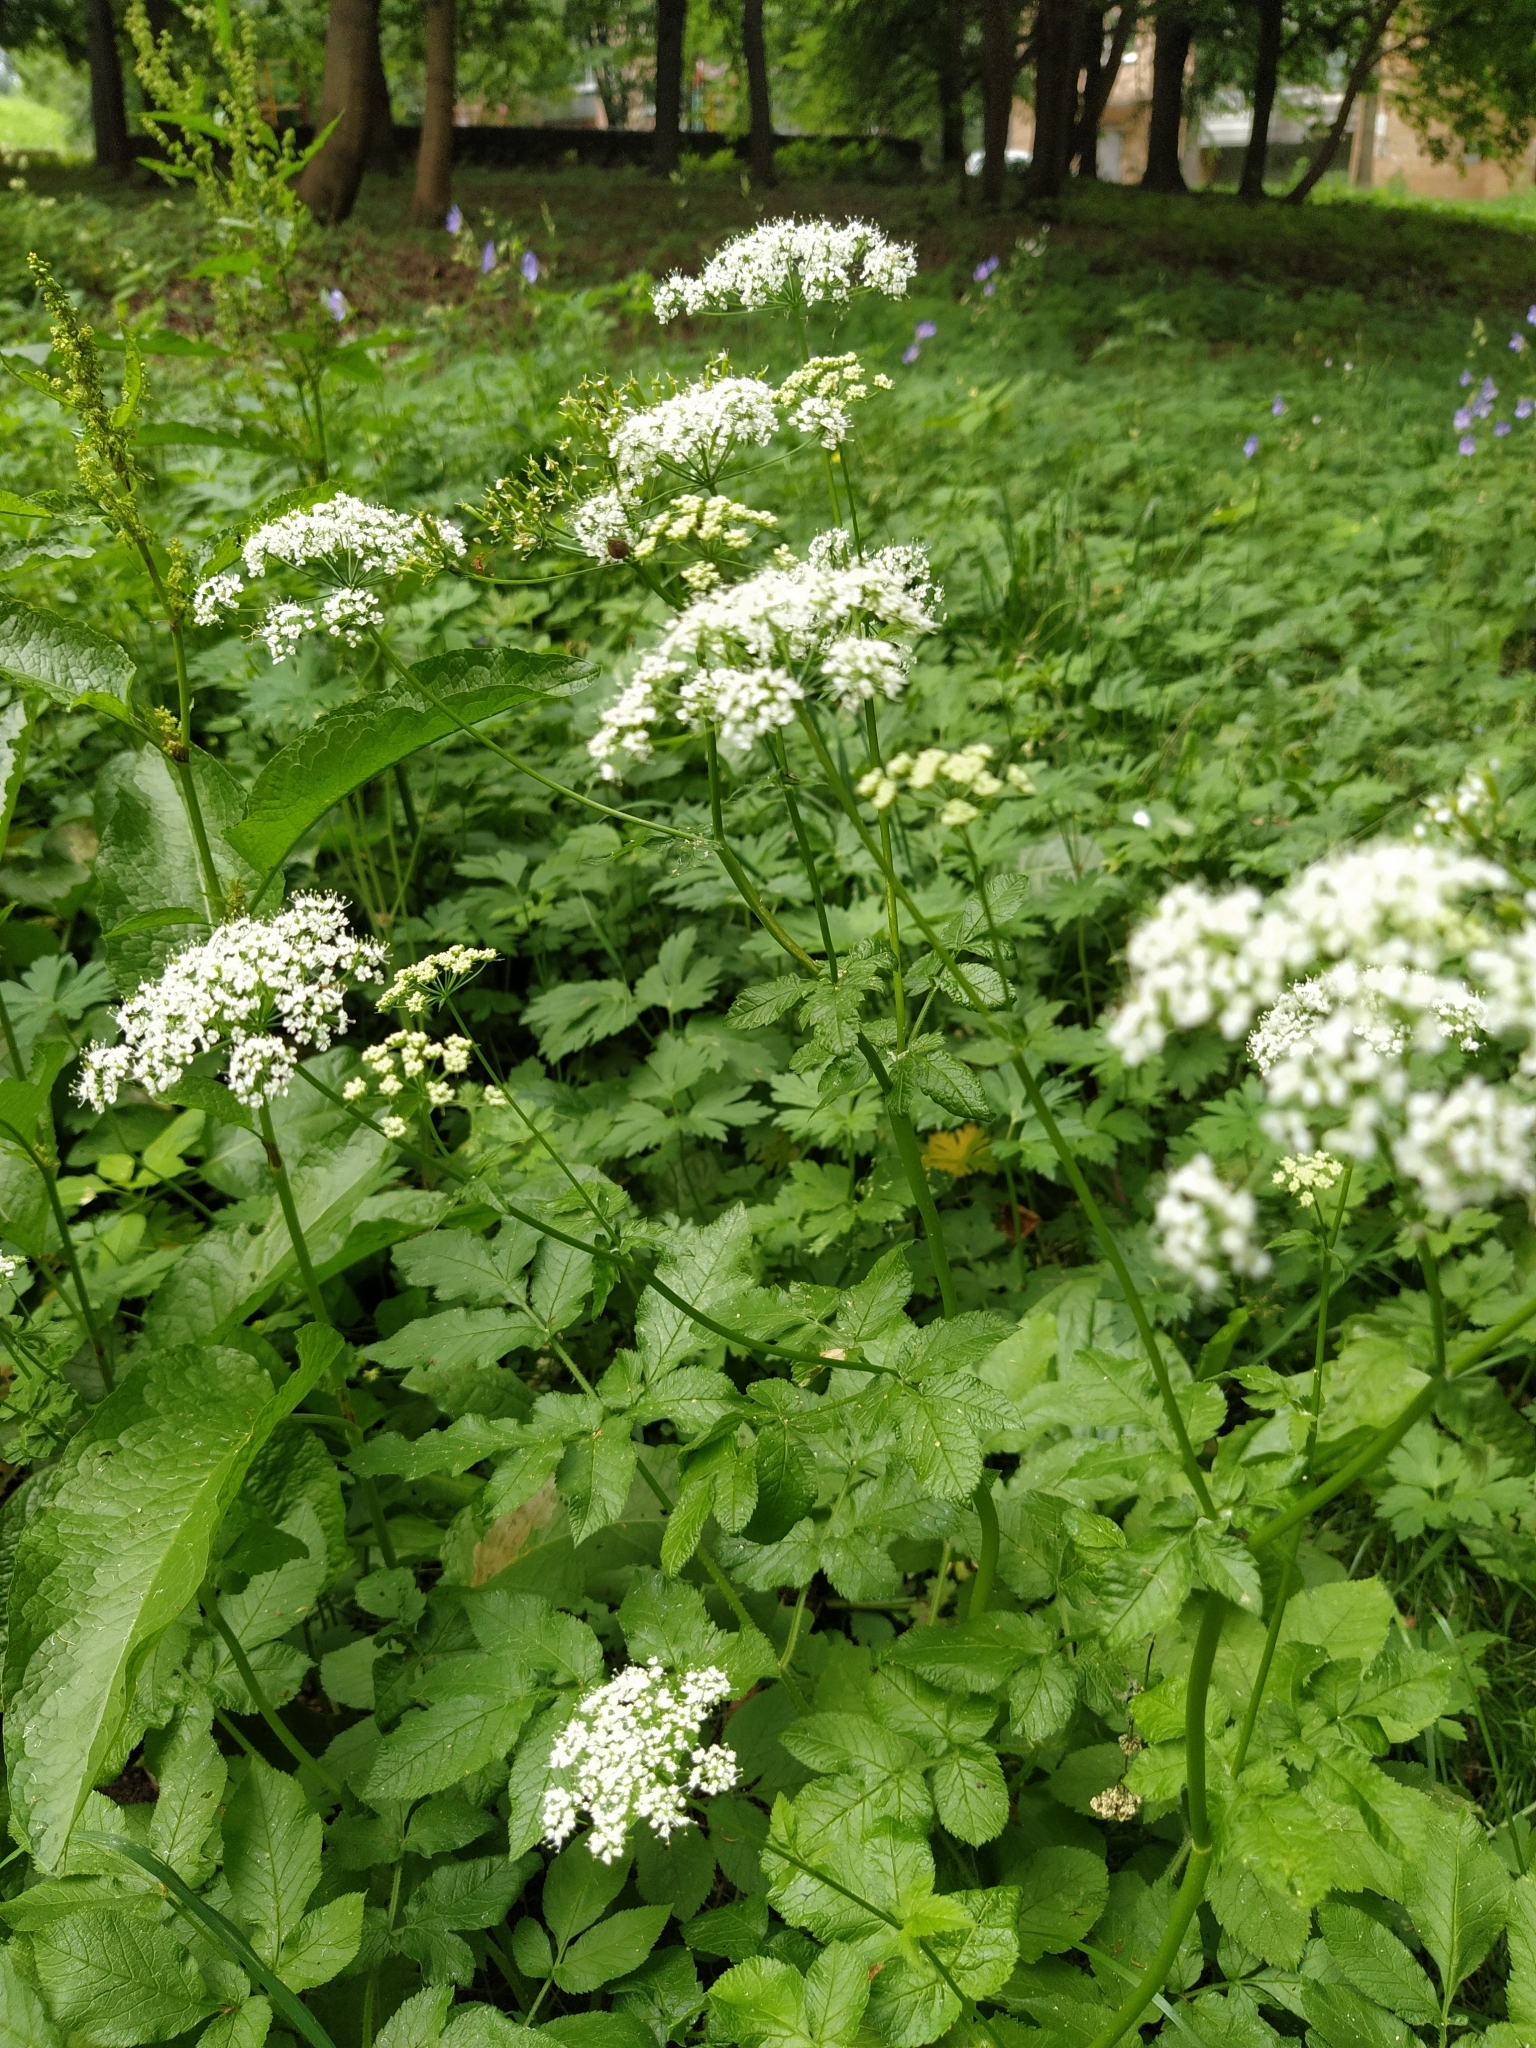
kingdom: Plantae
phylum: Tracheophyta
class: Magnoliopsida
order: Apiales
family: Apiaceae
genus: Chaerophyllum
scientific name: Chaerophyllum aromaticum
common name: Broadleaf chervil
